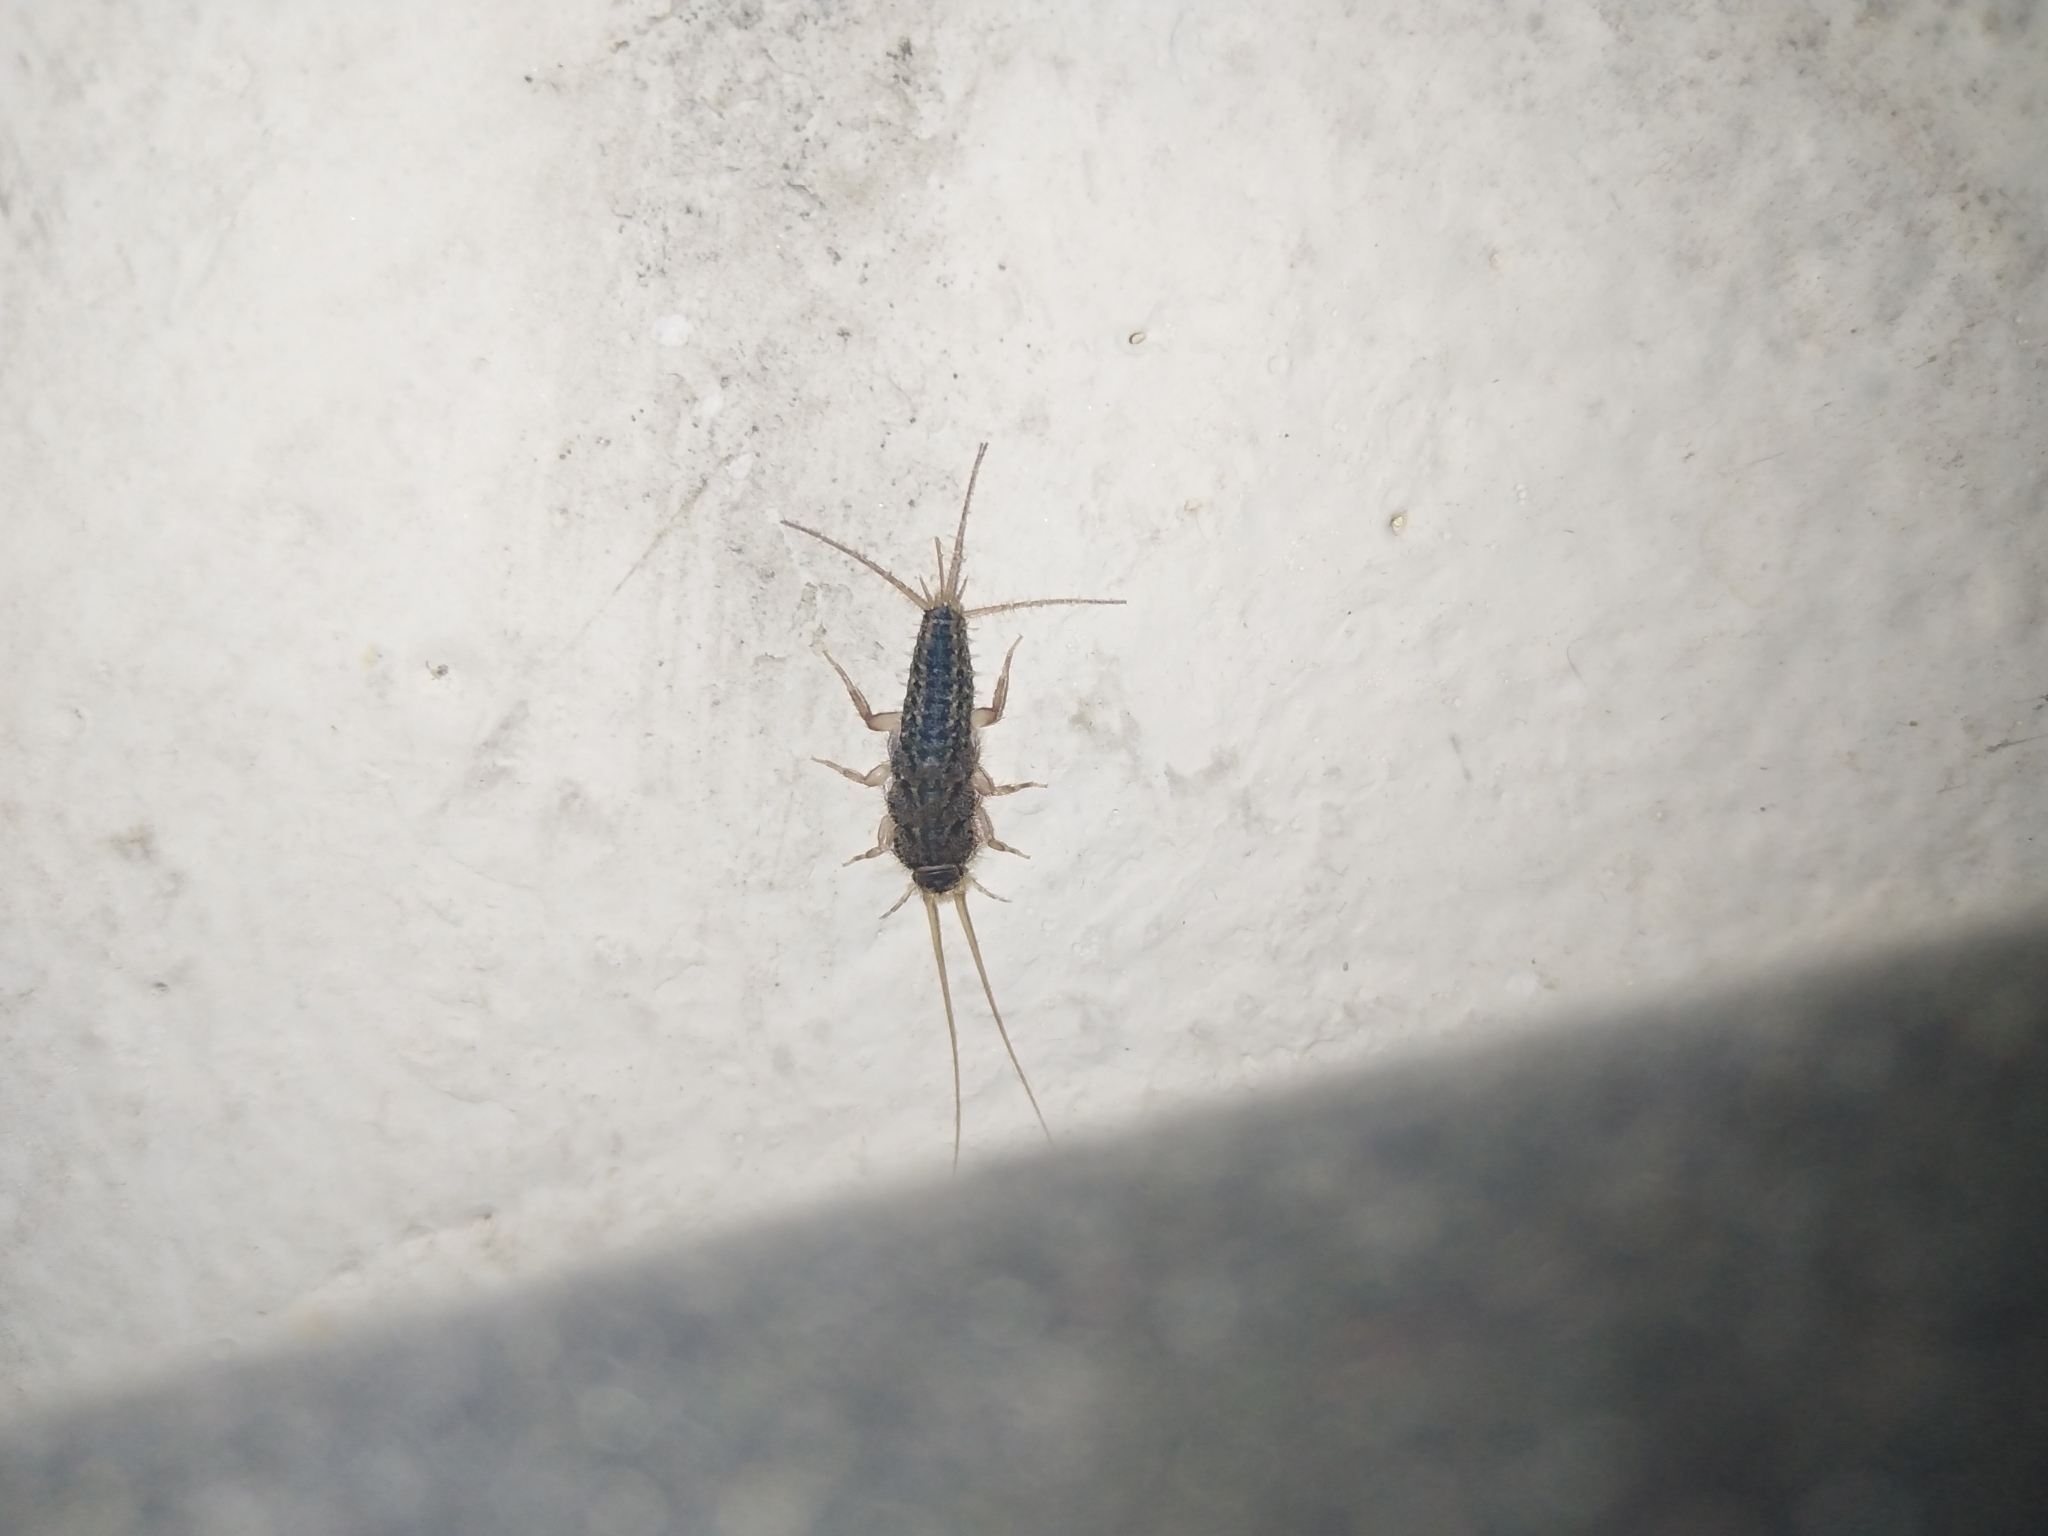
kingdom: Animalia
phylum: Arthropoda
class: Insecta
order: Zygentoma
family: Lepismatidae
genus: Ctenolepisma
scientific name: Ctenolepisma lineata
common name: Four-lined silverfish
